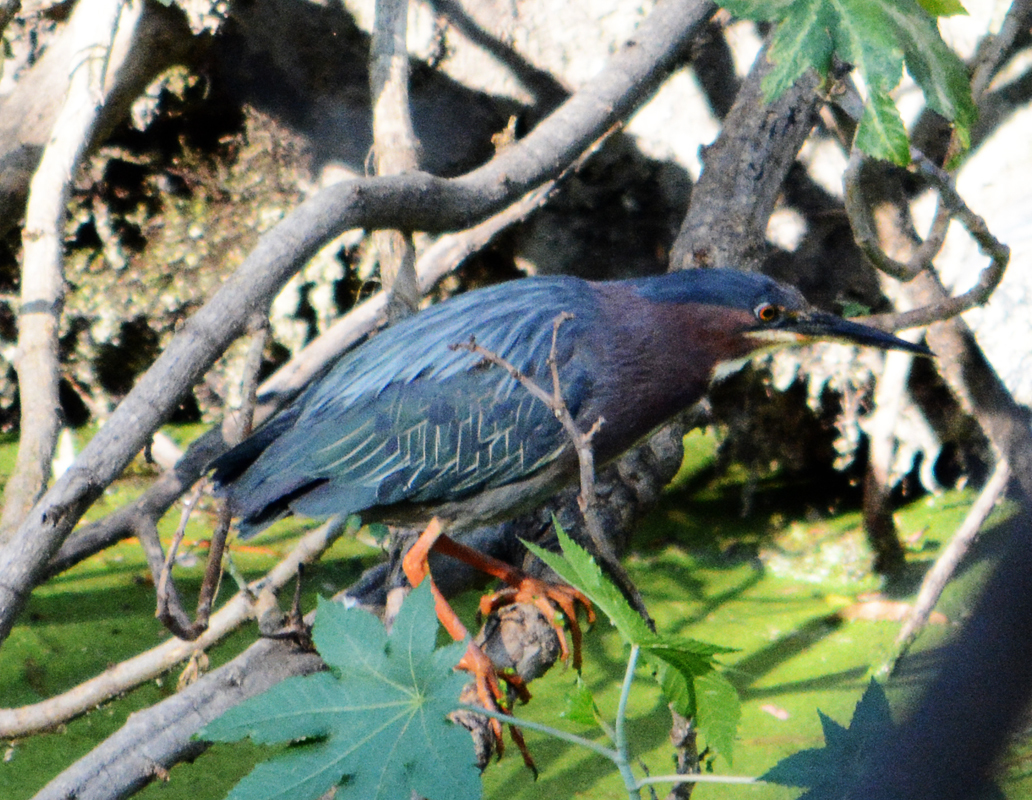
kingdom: Animalia
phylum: Chordata
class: Aves
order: Pelecaniformes
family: Ardeidae
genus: Butorides
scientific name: Butorides virescens
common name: Green heron
